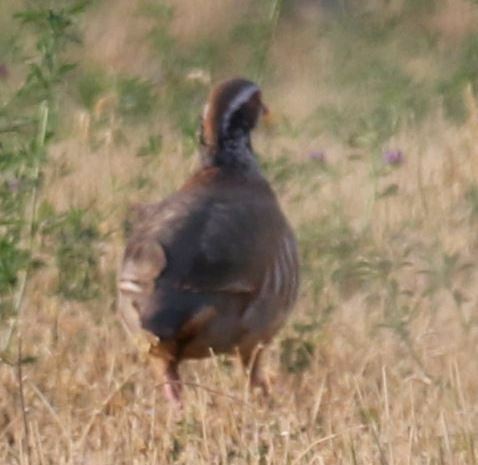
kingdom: Animalia
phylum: Chordata
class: Aves
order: Galliformes
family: Phasianidae
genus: Alectoris
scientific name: Alectoris rufa
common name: Red-legged partridge
